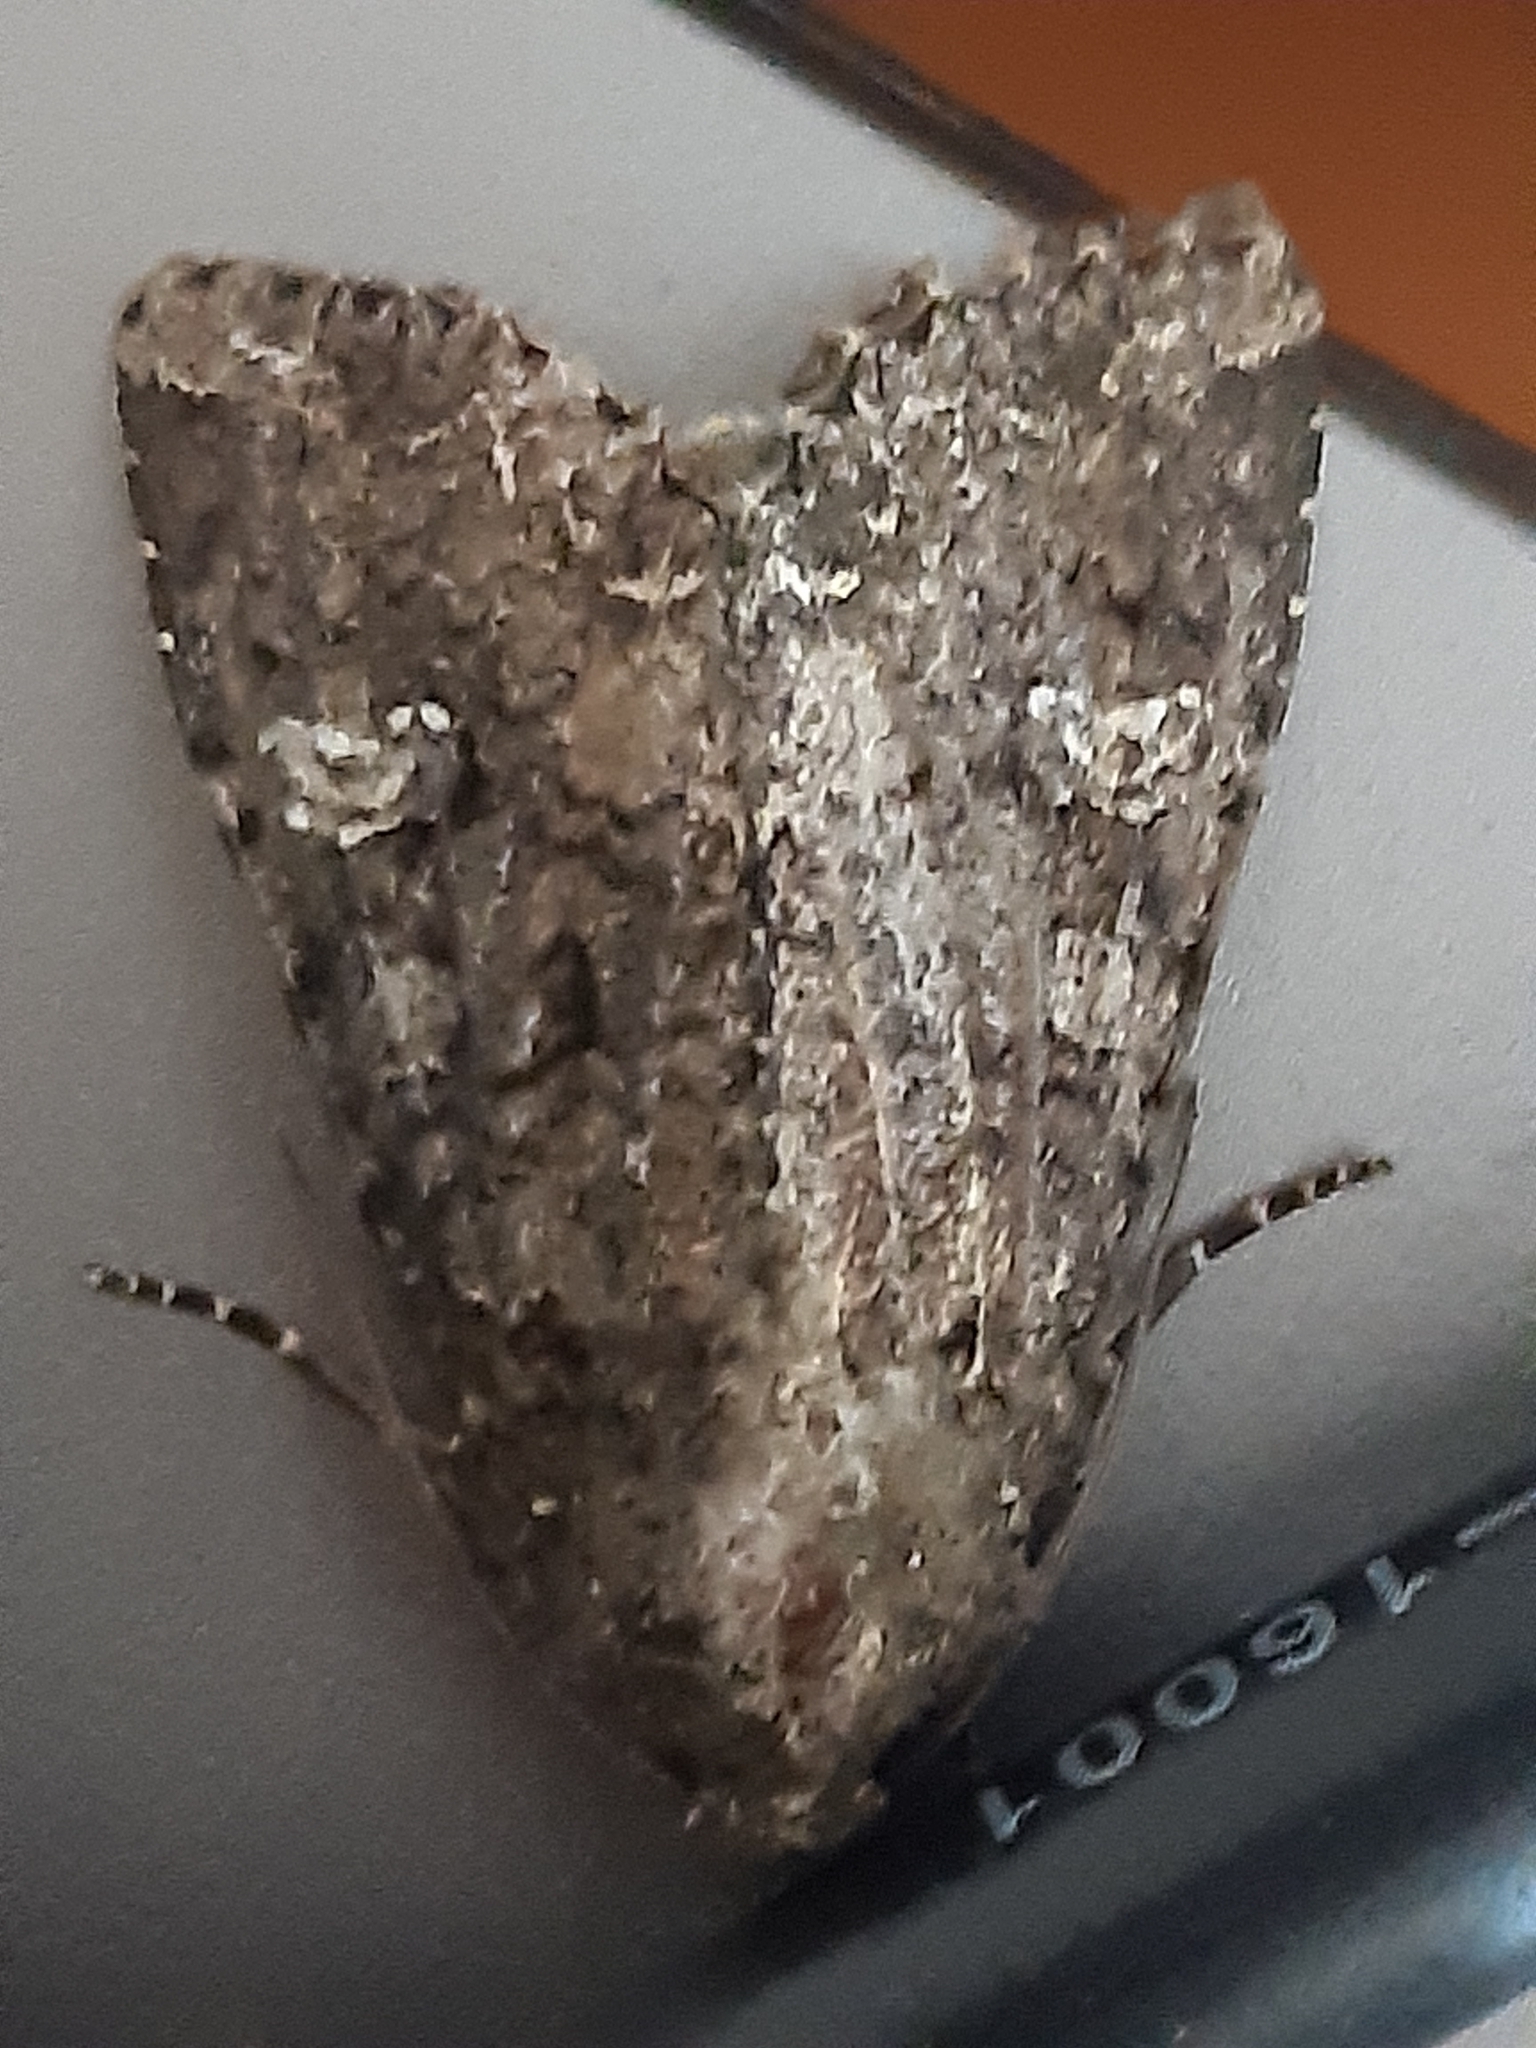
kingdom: Animalia
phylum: Arthropoda
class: Insecta
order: Lepidoptera
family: Noctuidae
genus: Mamestra
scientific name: Mamestra brassicae
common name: Cabbage moth
